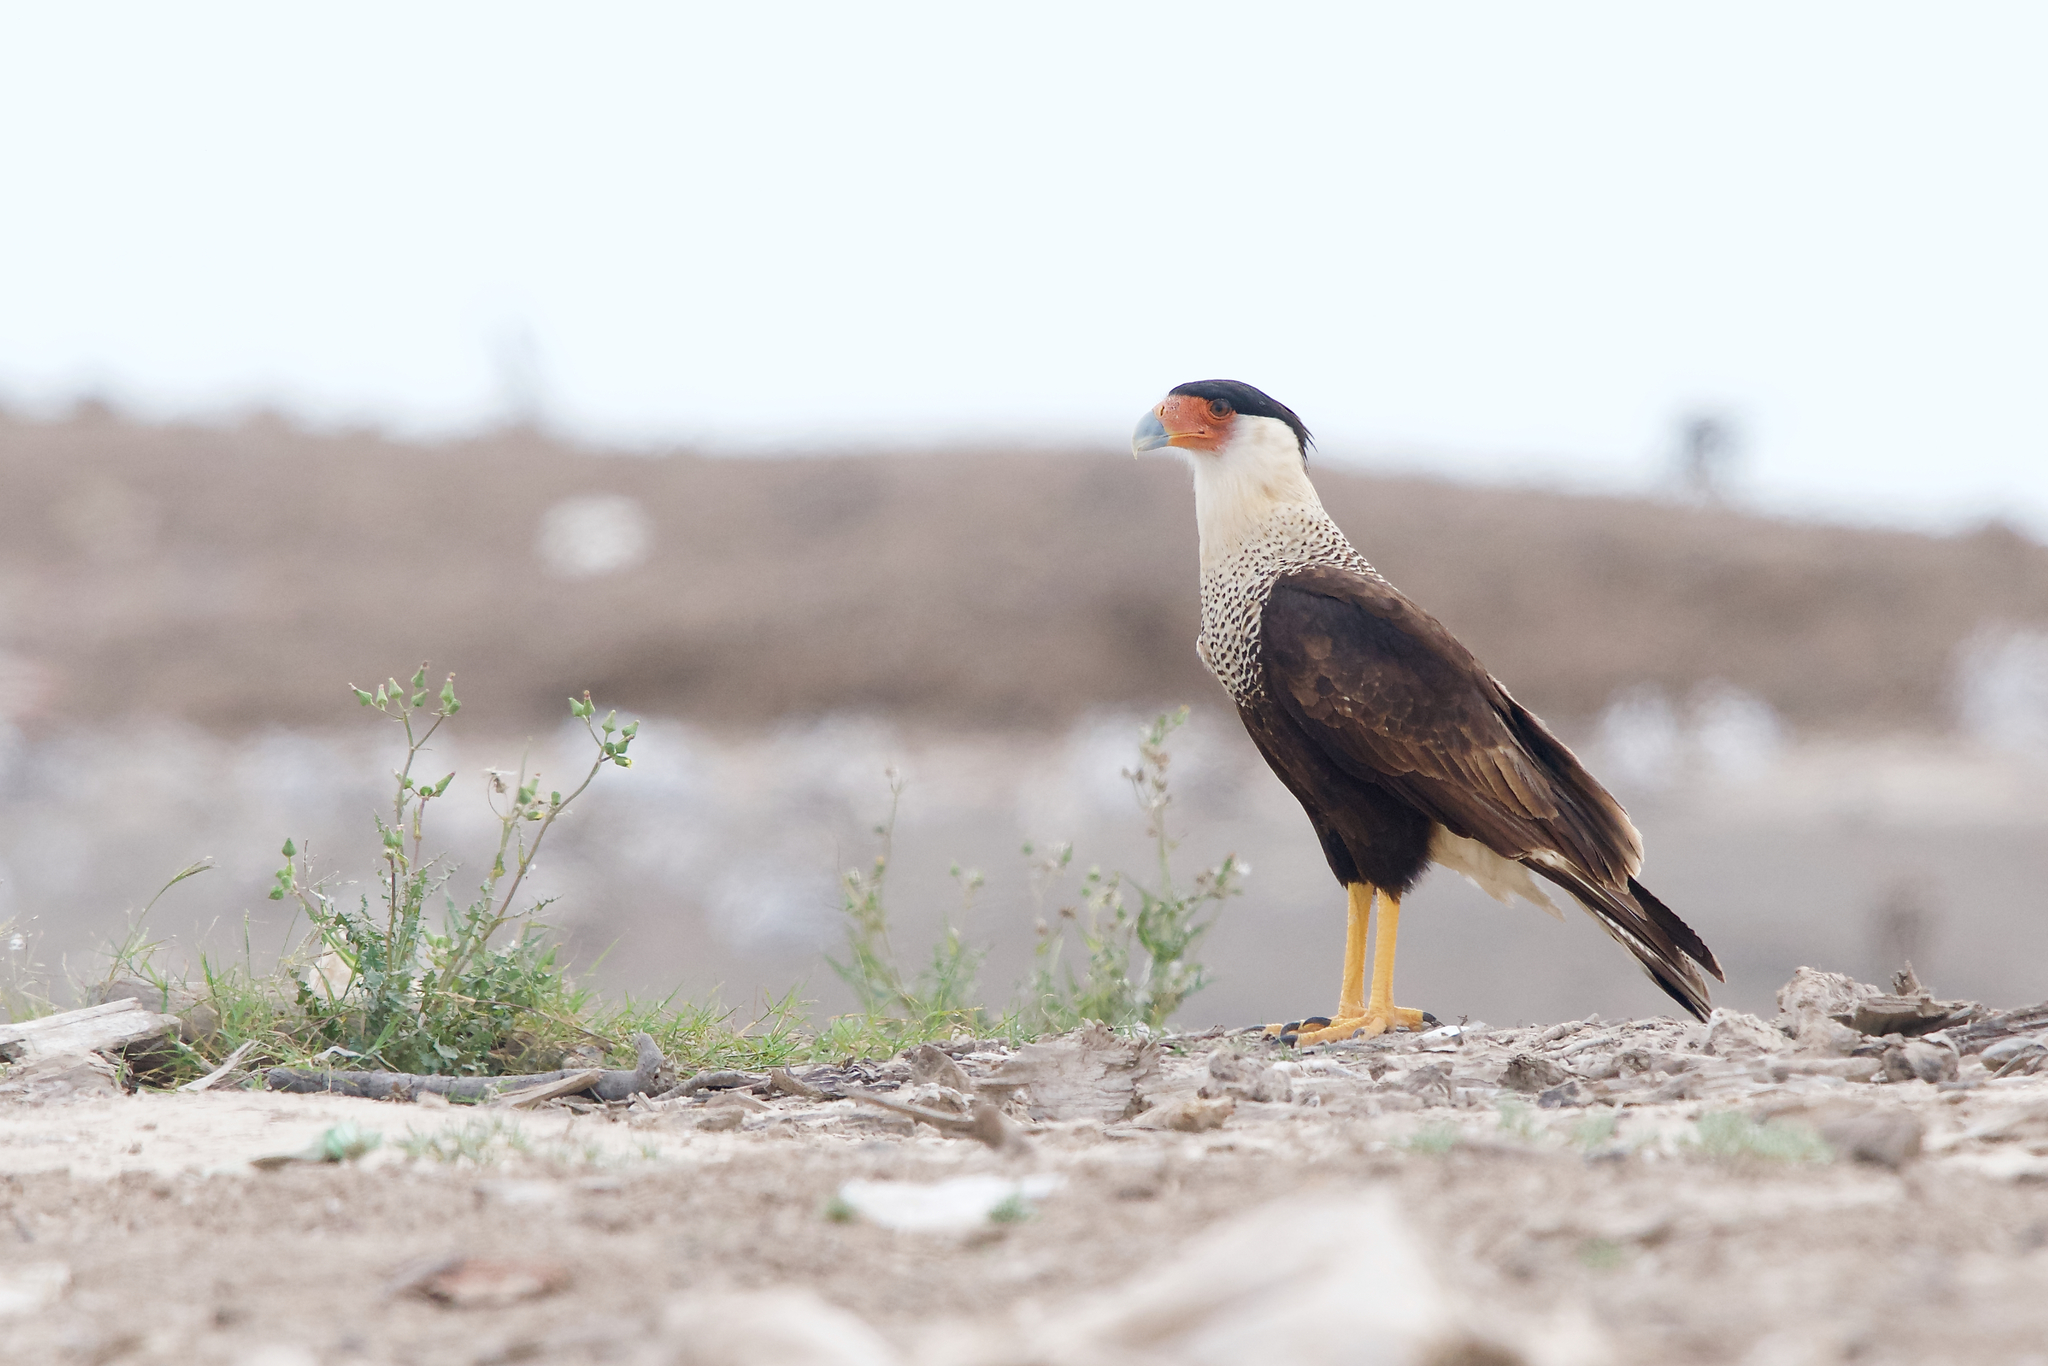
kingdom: Animalia
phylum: Chordata
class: Aves
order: Falconiformes
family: Falconidae
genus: Caracara
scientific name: Caracara plancus
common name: Southern caracara
